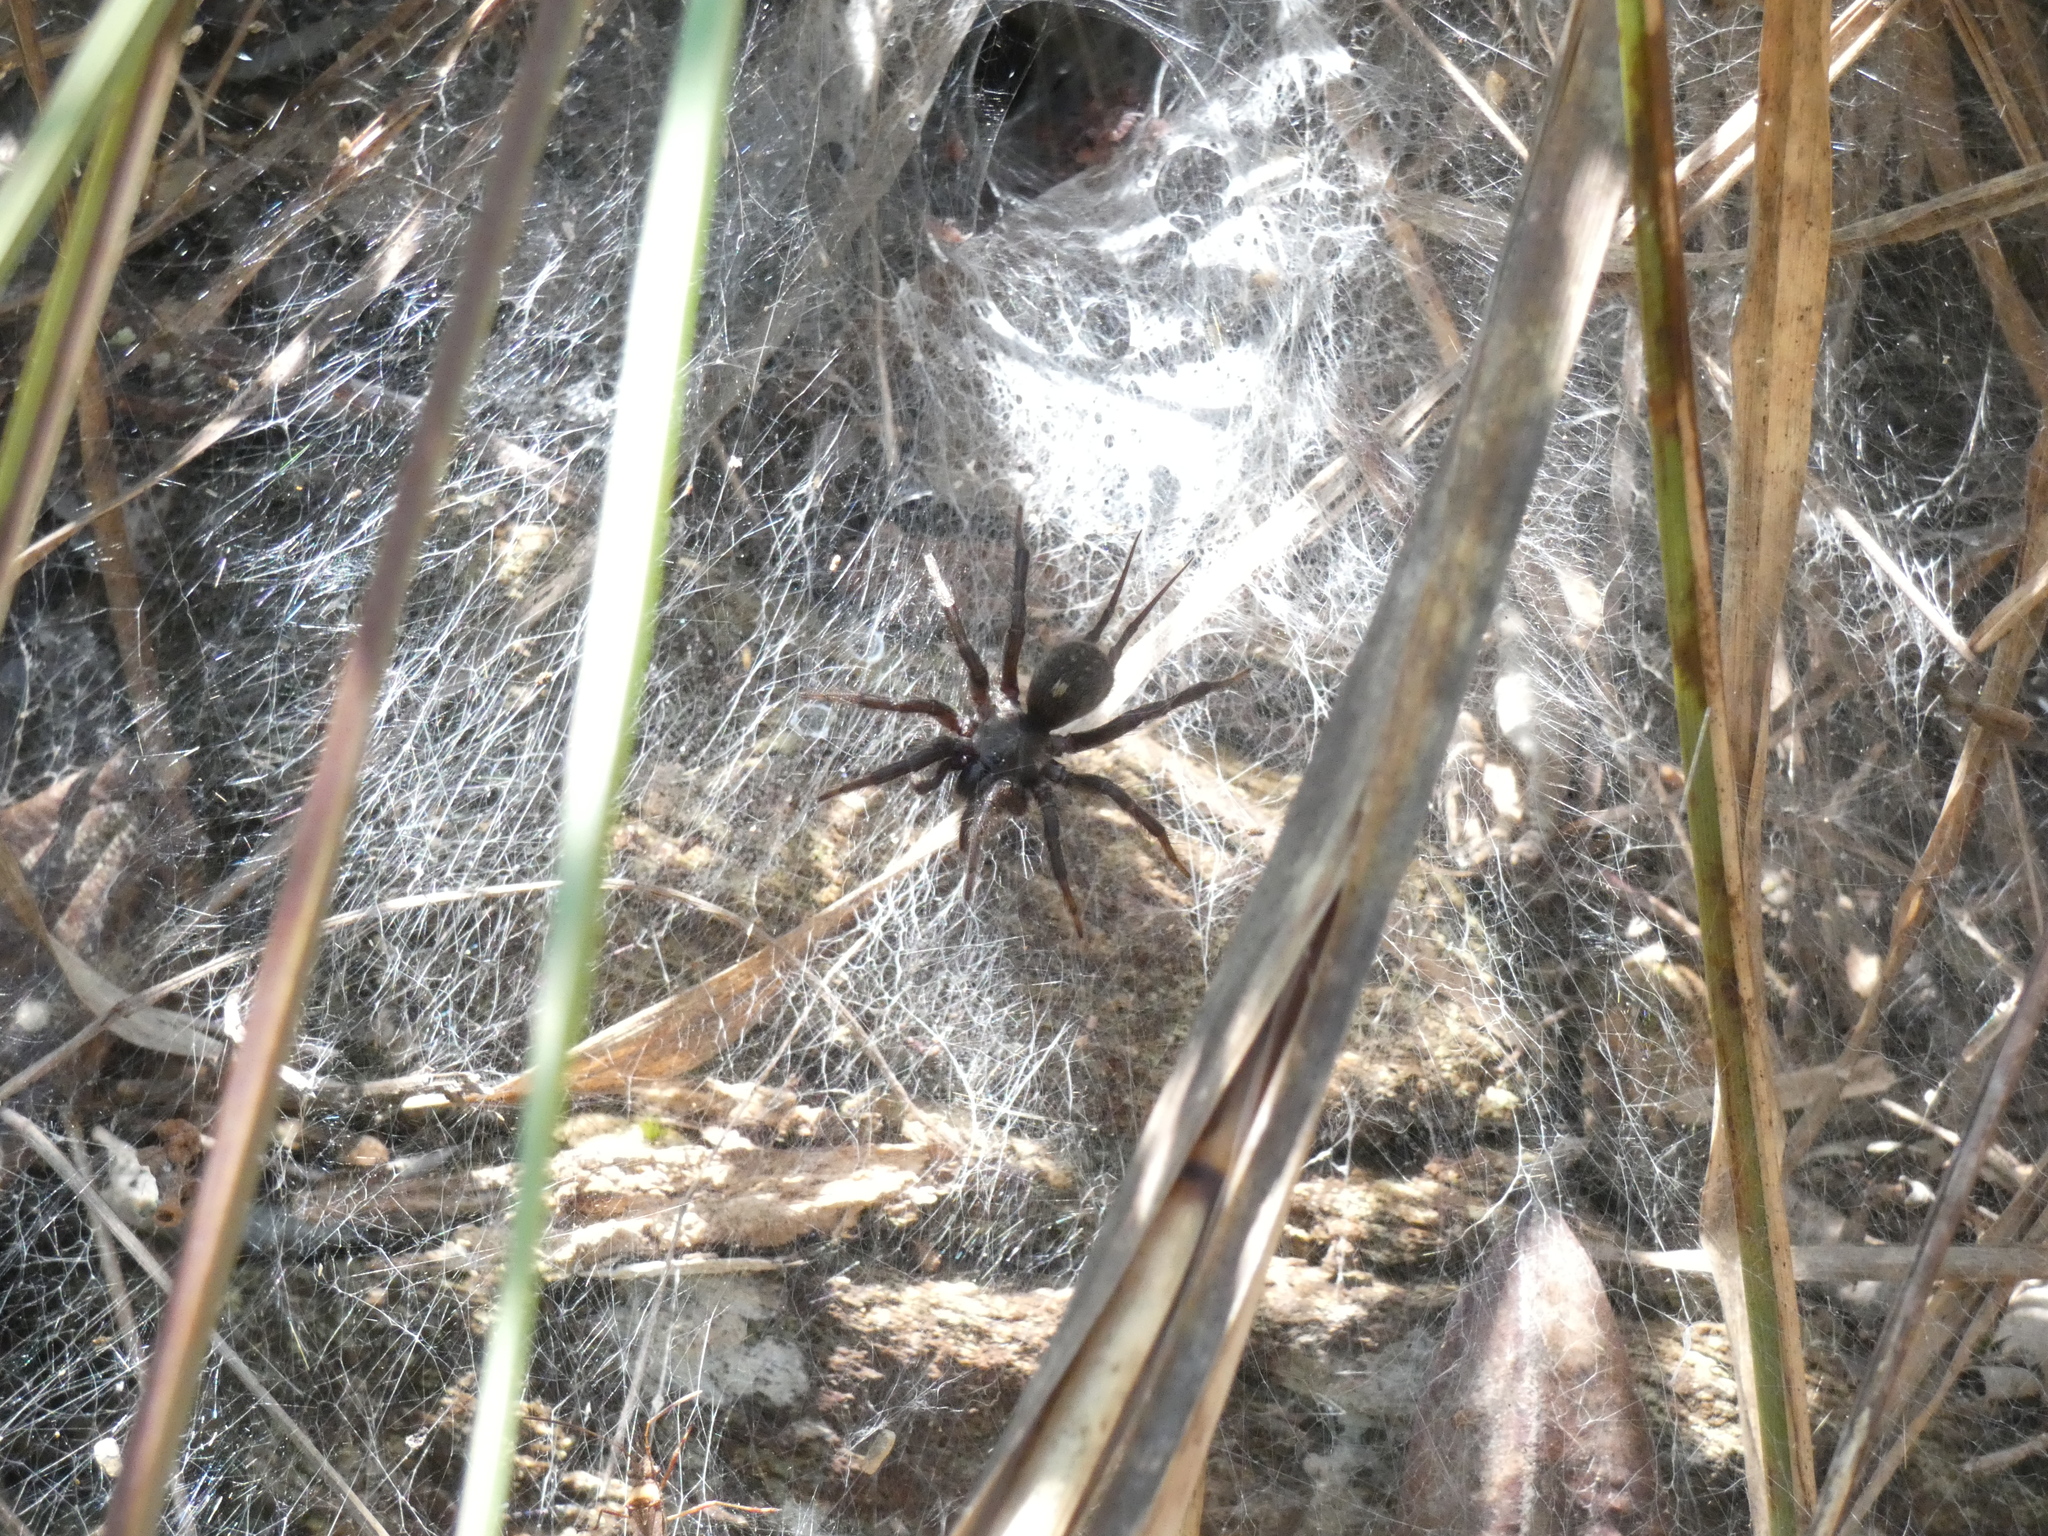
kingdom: Animalia
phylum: Arthropoda
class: Arachnida
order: Araneae
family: Ischnothelidae
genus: Ischnothele
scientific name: Ischnothele annulata
